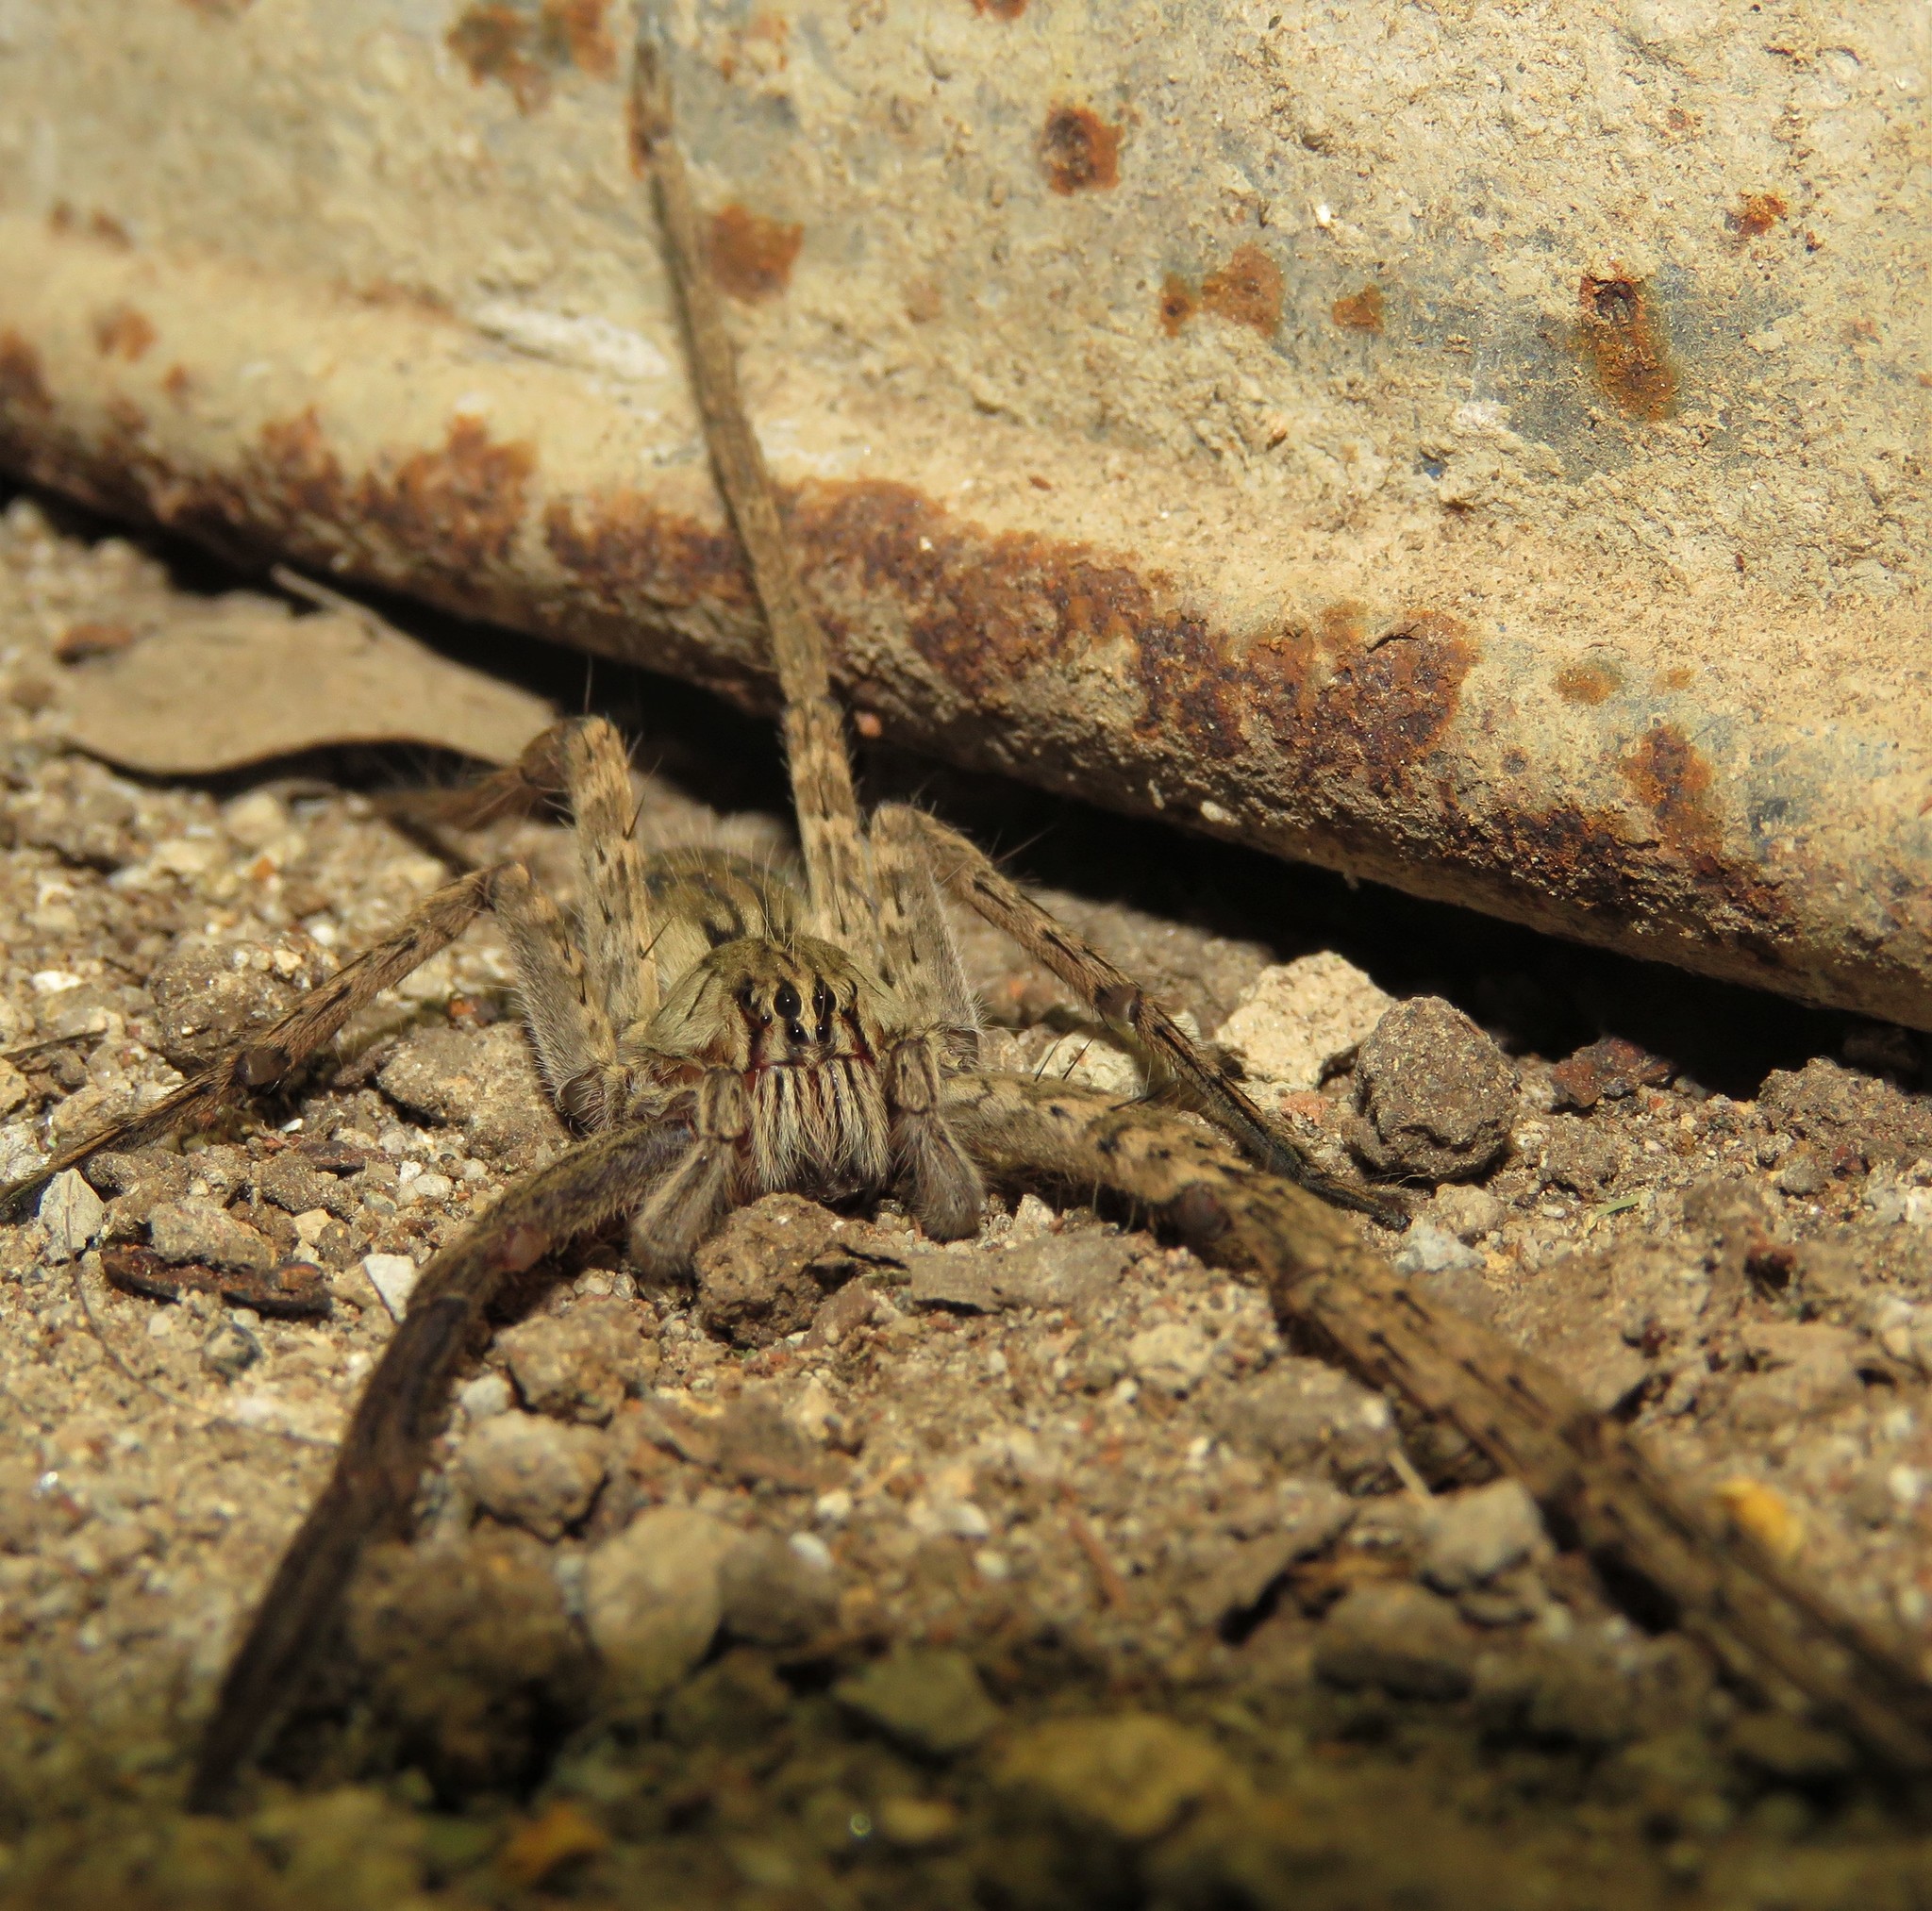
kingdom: Animalia
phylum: Arthropoda
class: Arachnida
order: Araneae
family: Trechaleidae
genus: Cupiennius
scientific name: Cupiennius coccineus
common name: Wandering spiders
